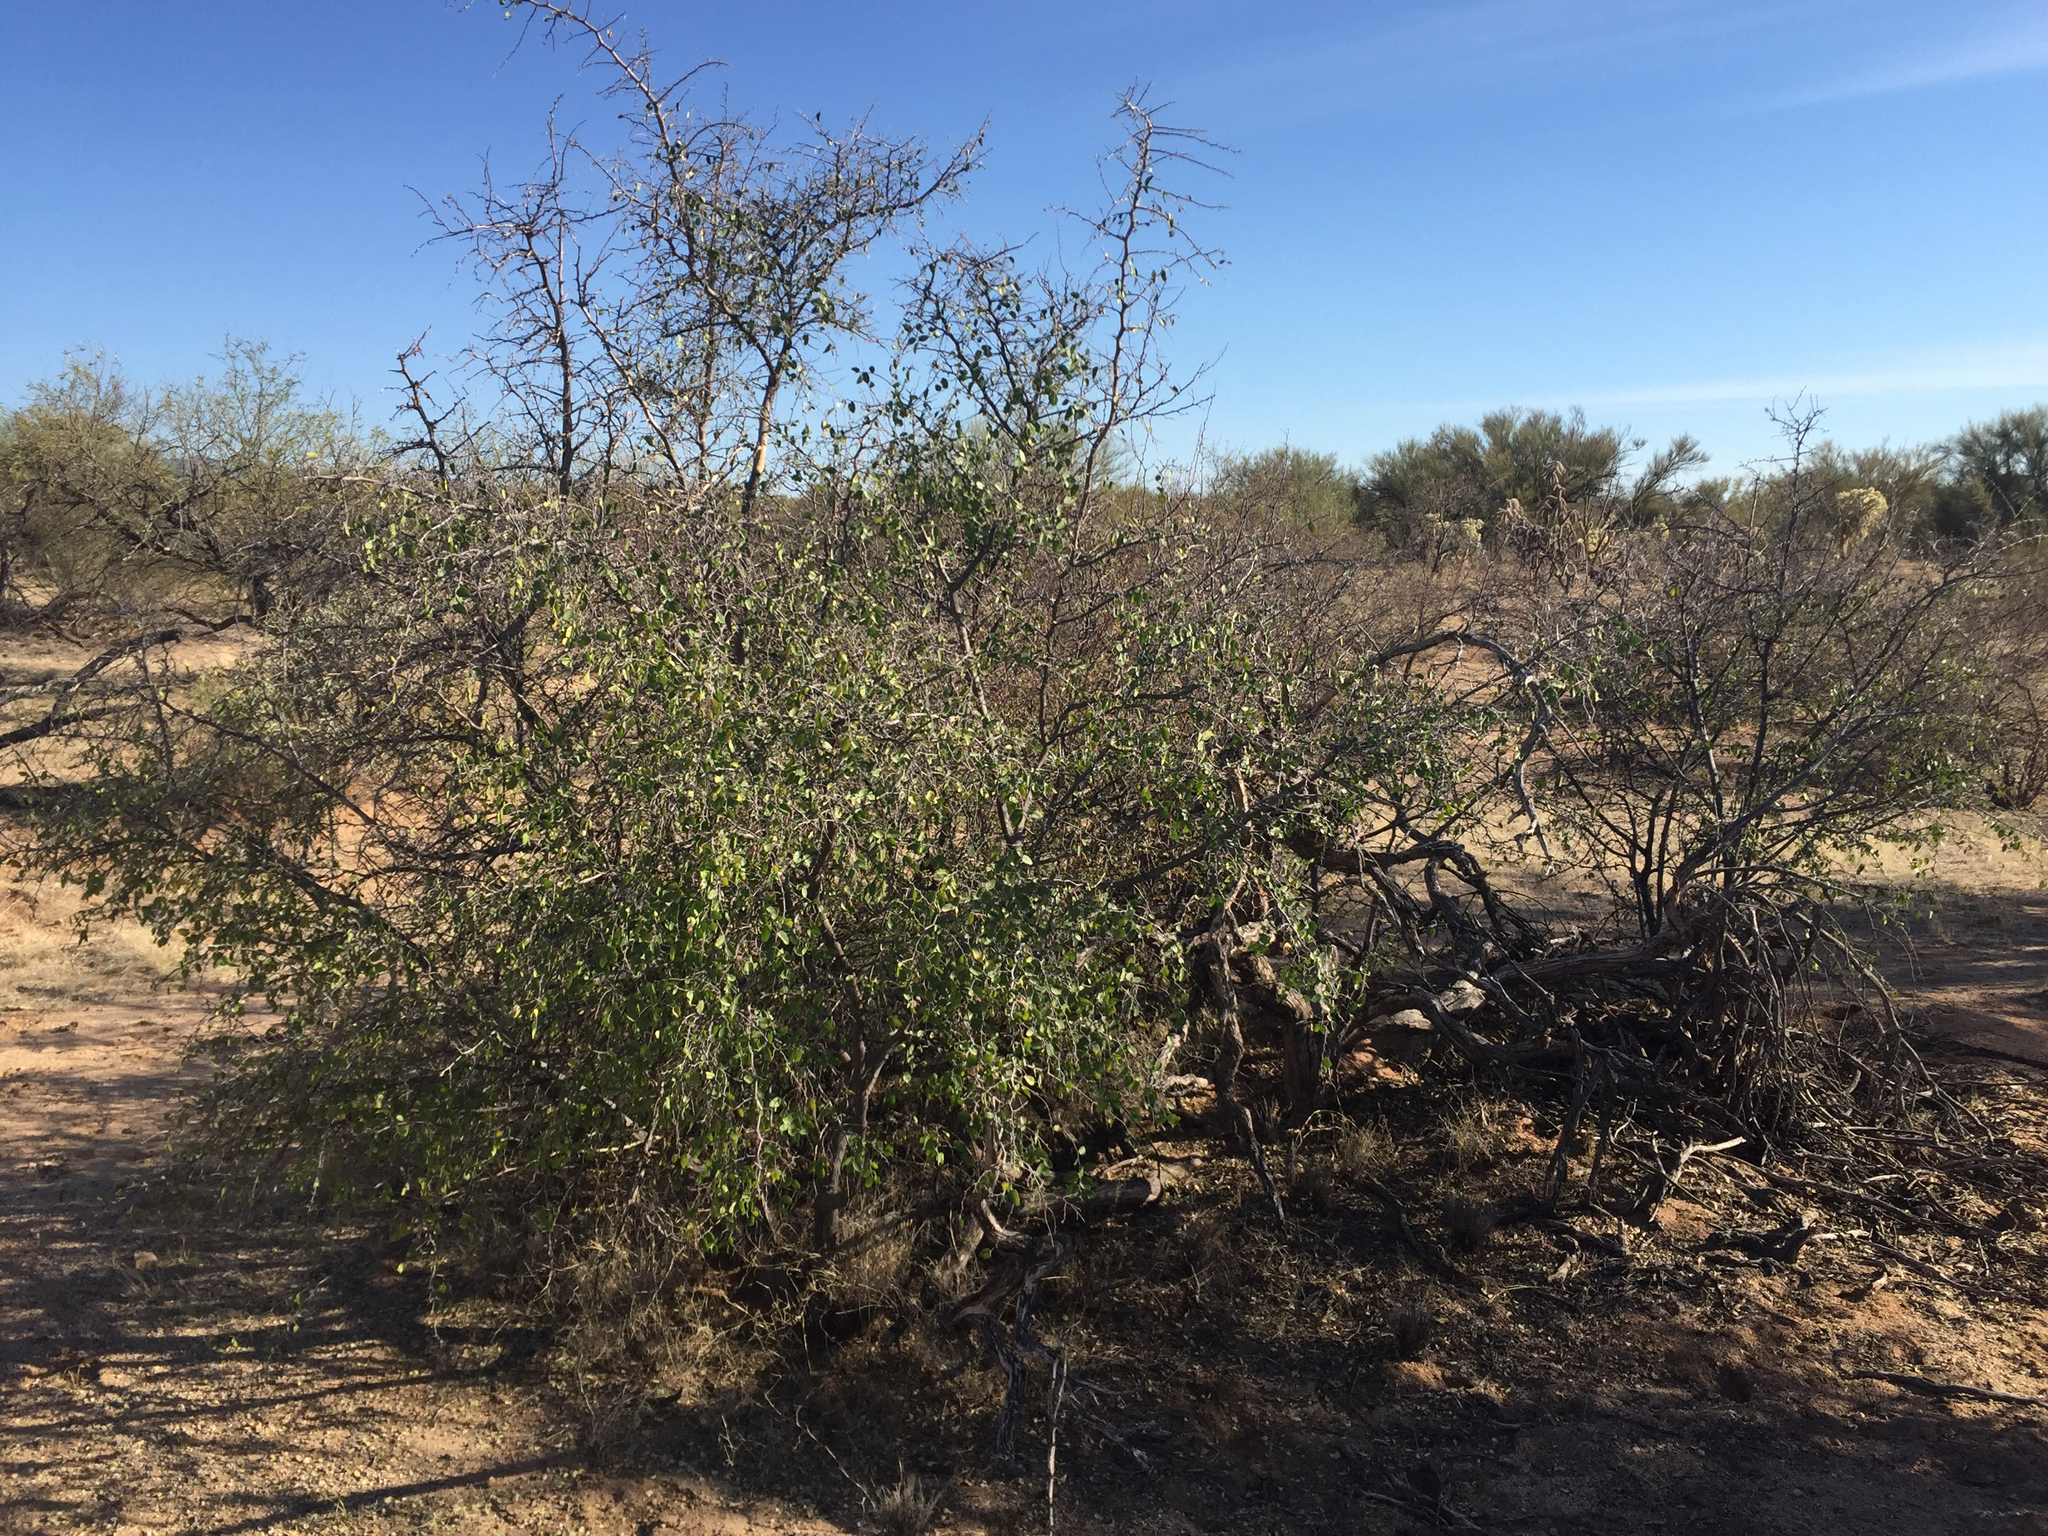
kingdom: Plantae
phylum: Tracheophyta
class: Magnoliopsida
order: Rosales
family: Cannabaceae
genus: Celtis
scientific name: Celtis pallida
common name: Desert hackberry
